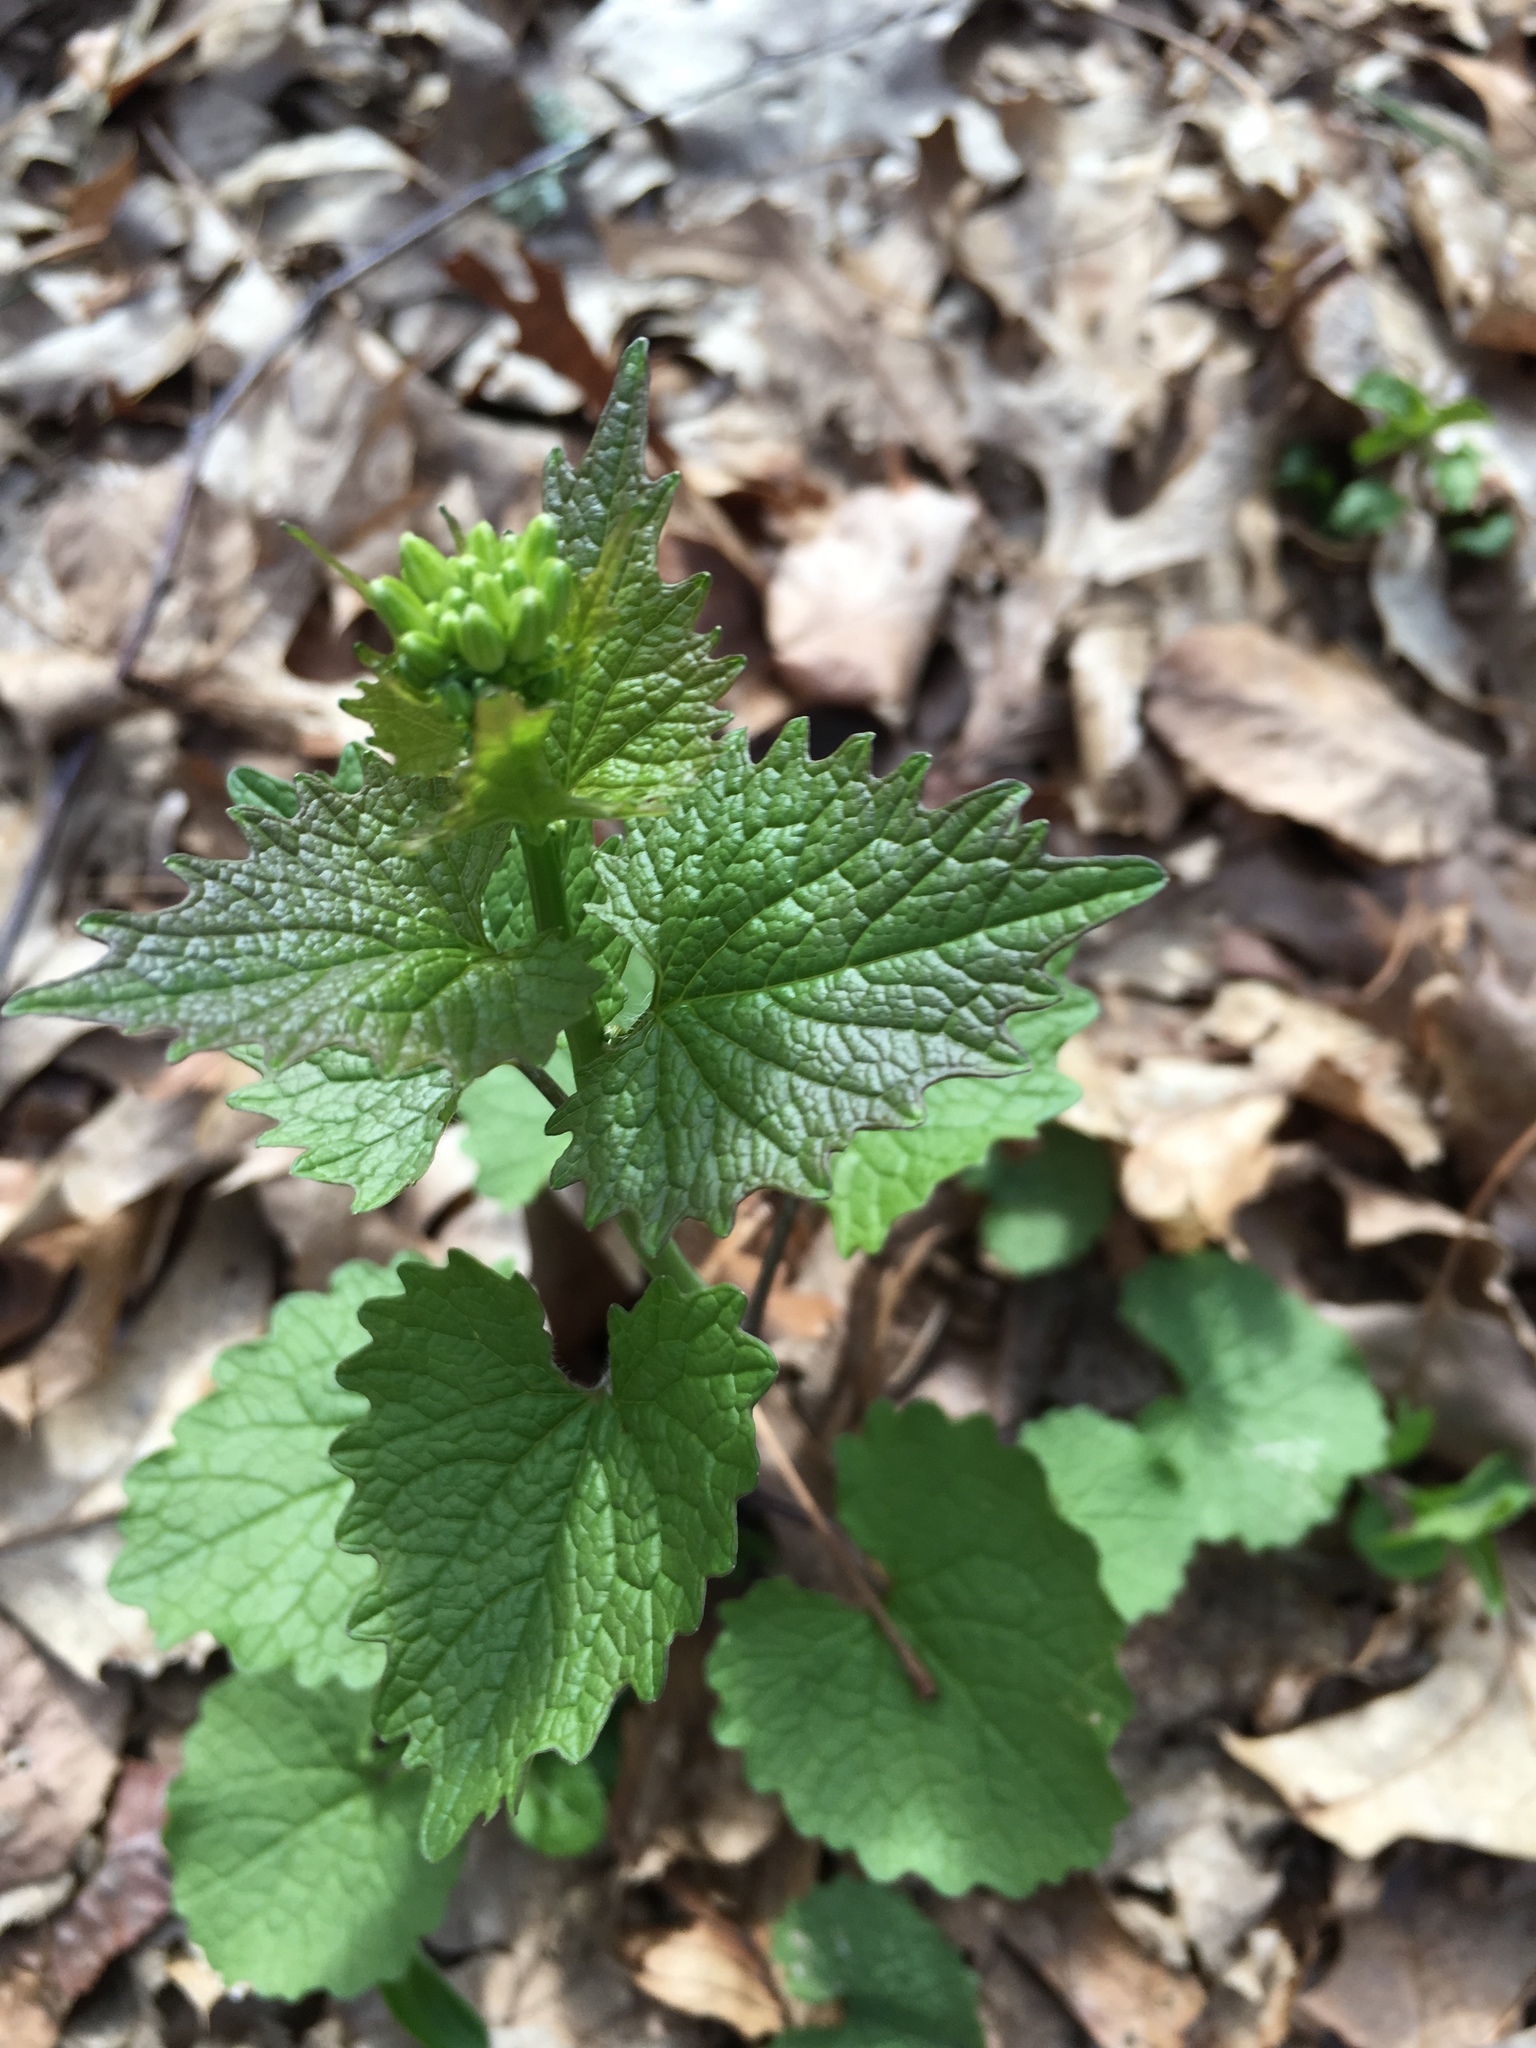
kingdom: Plantae
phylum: Tracheophyta
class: Magnoliopsida
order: Brassicales
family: Brassicaceae
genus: Alliaria
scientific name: Alliaria petiolata
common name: Garlic mustard
